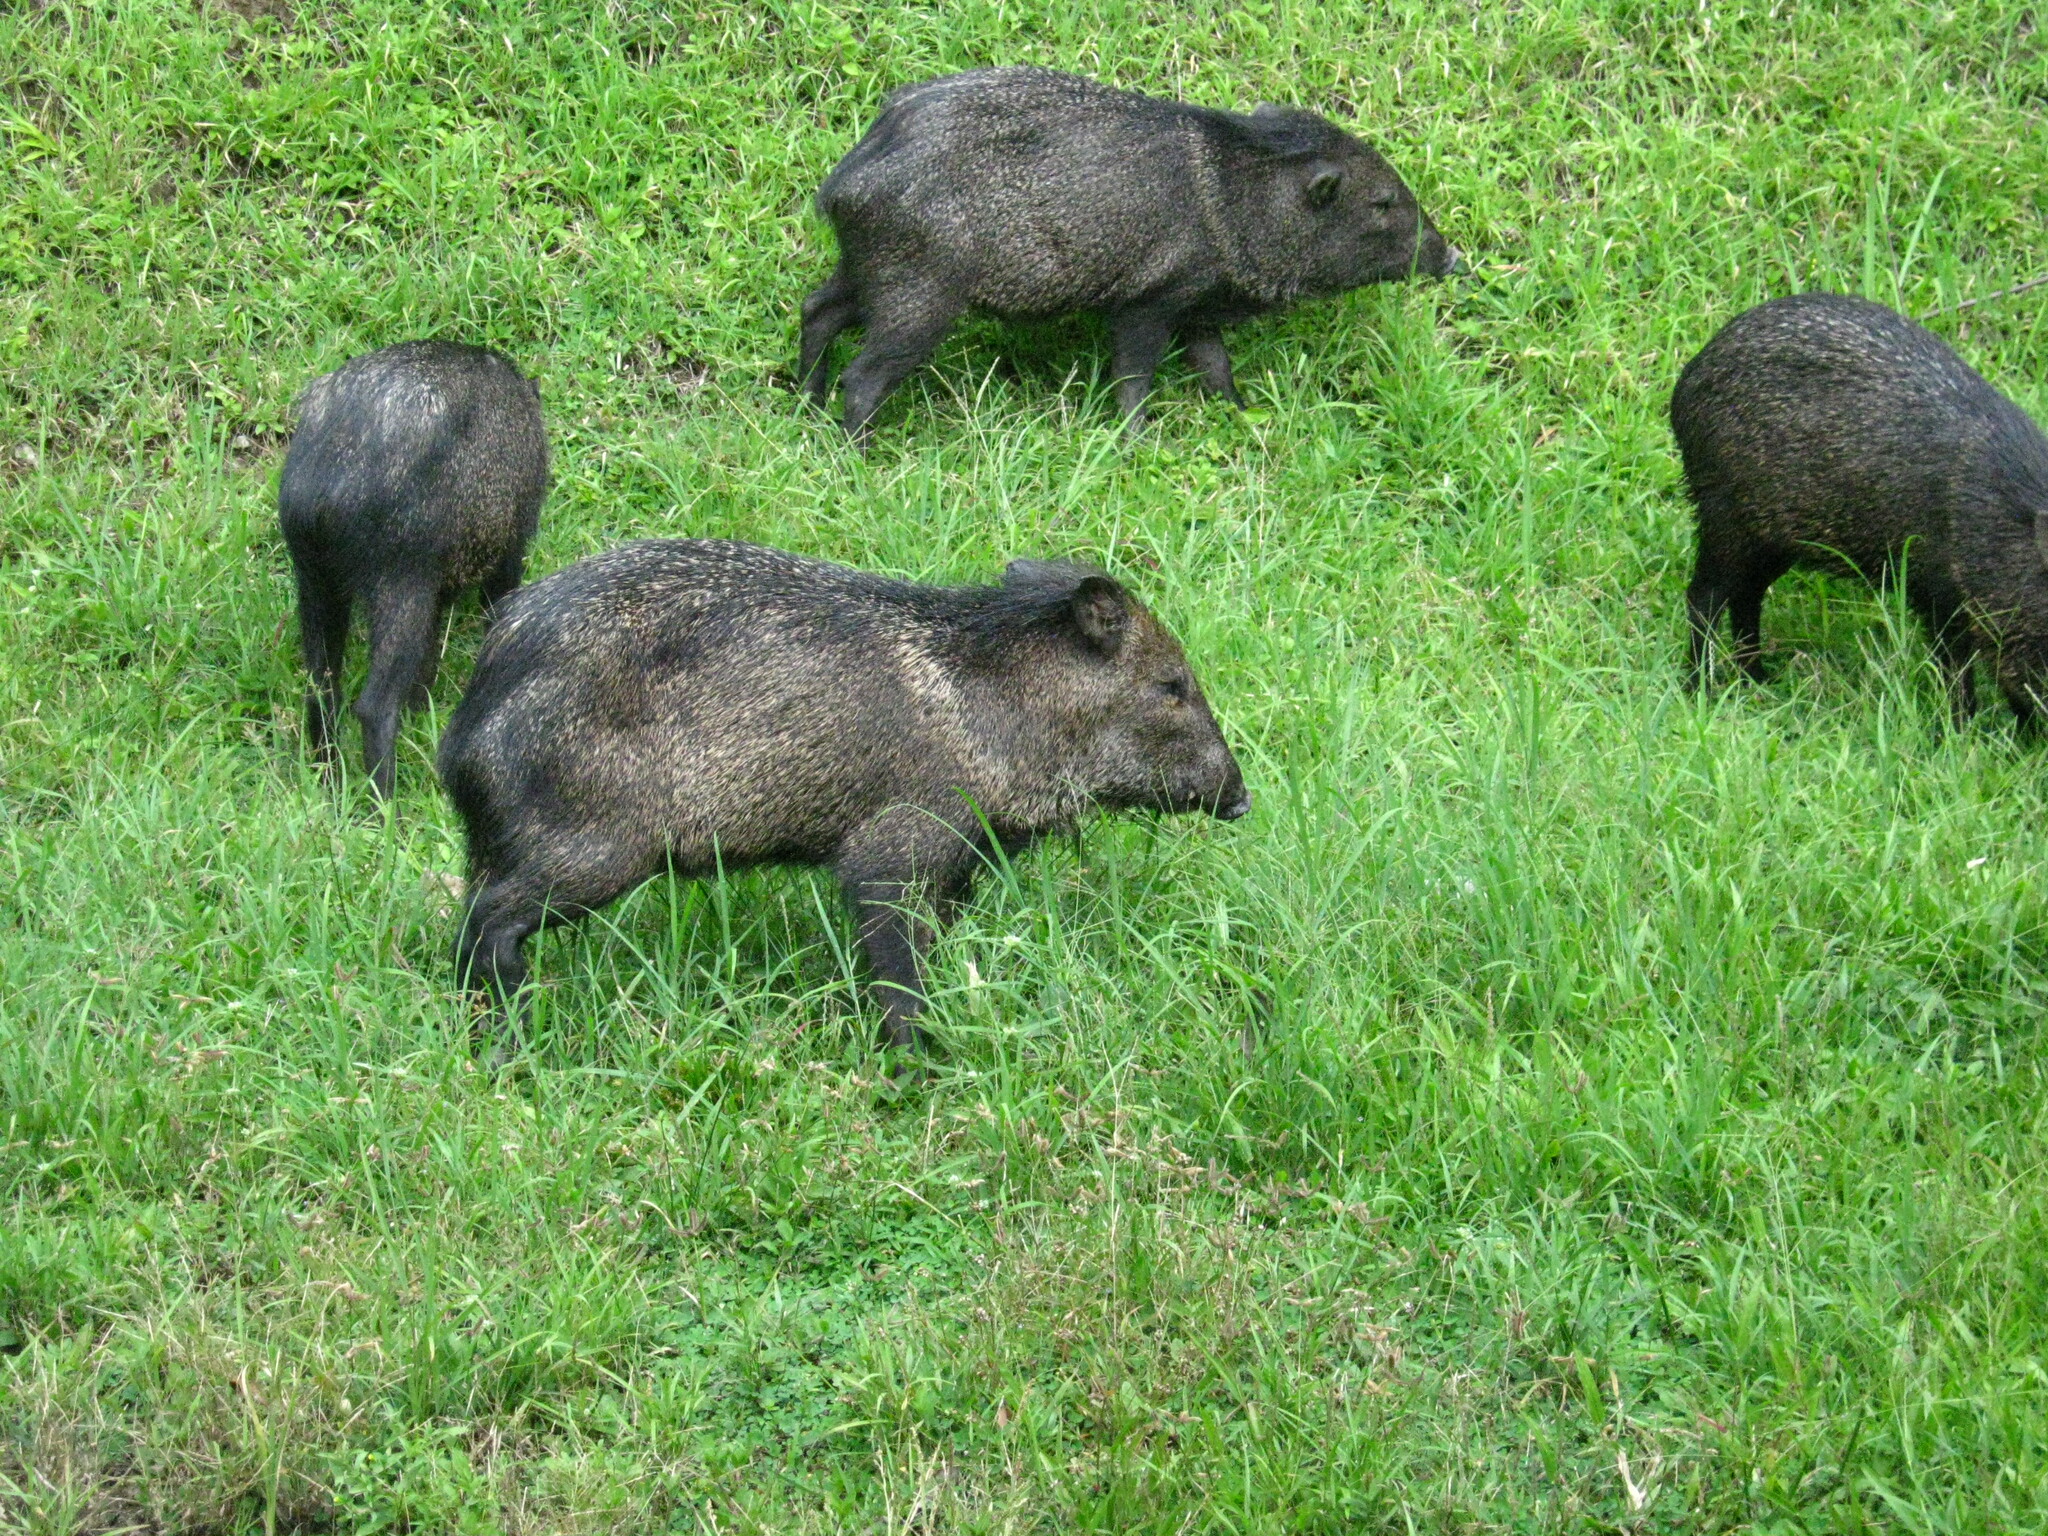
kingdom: Animalia
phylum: Chordata
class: Mammalia
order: Artiodactyla
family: Tayassuidae
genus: Pecari
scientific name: Pecari tajacu
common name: Collared peccary
